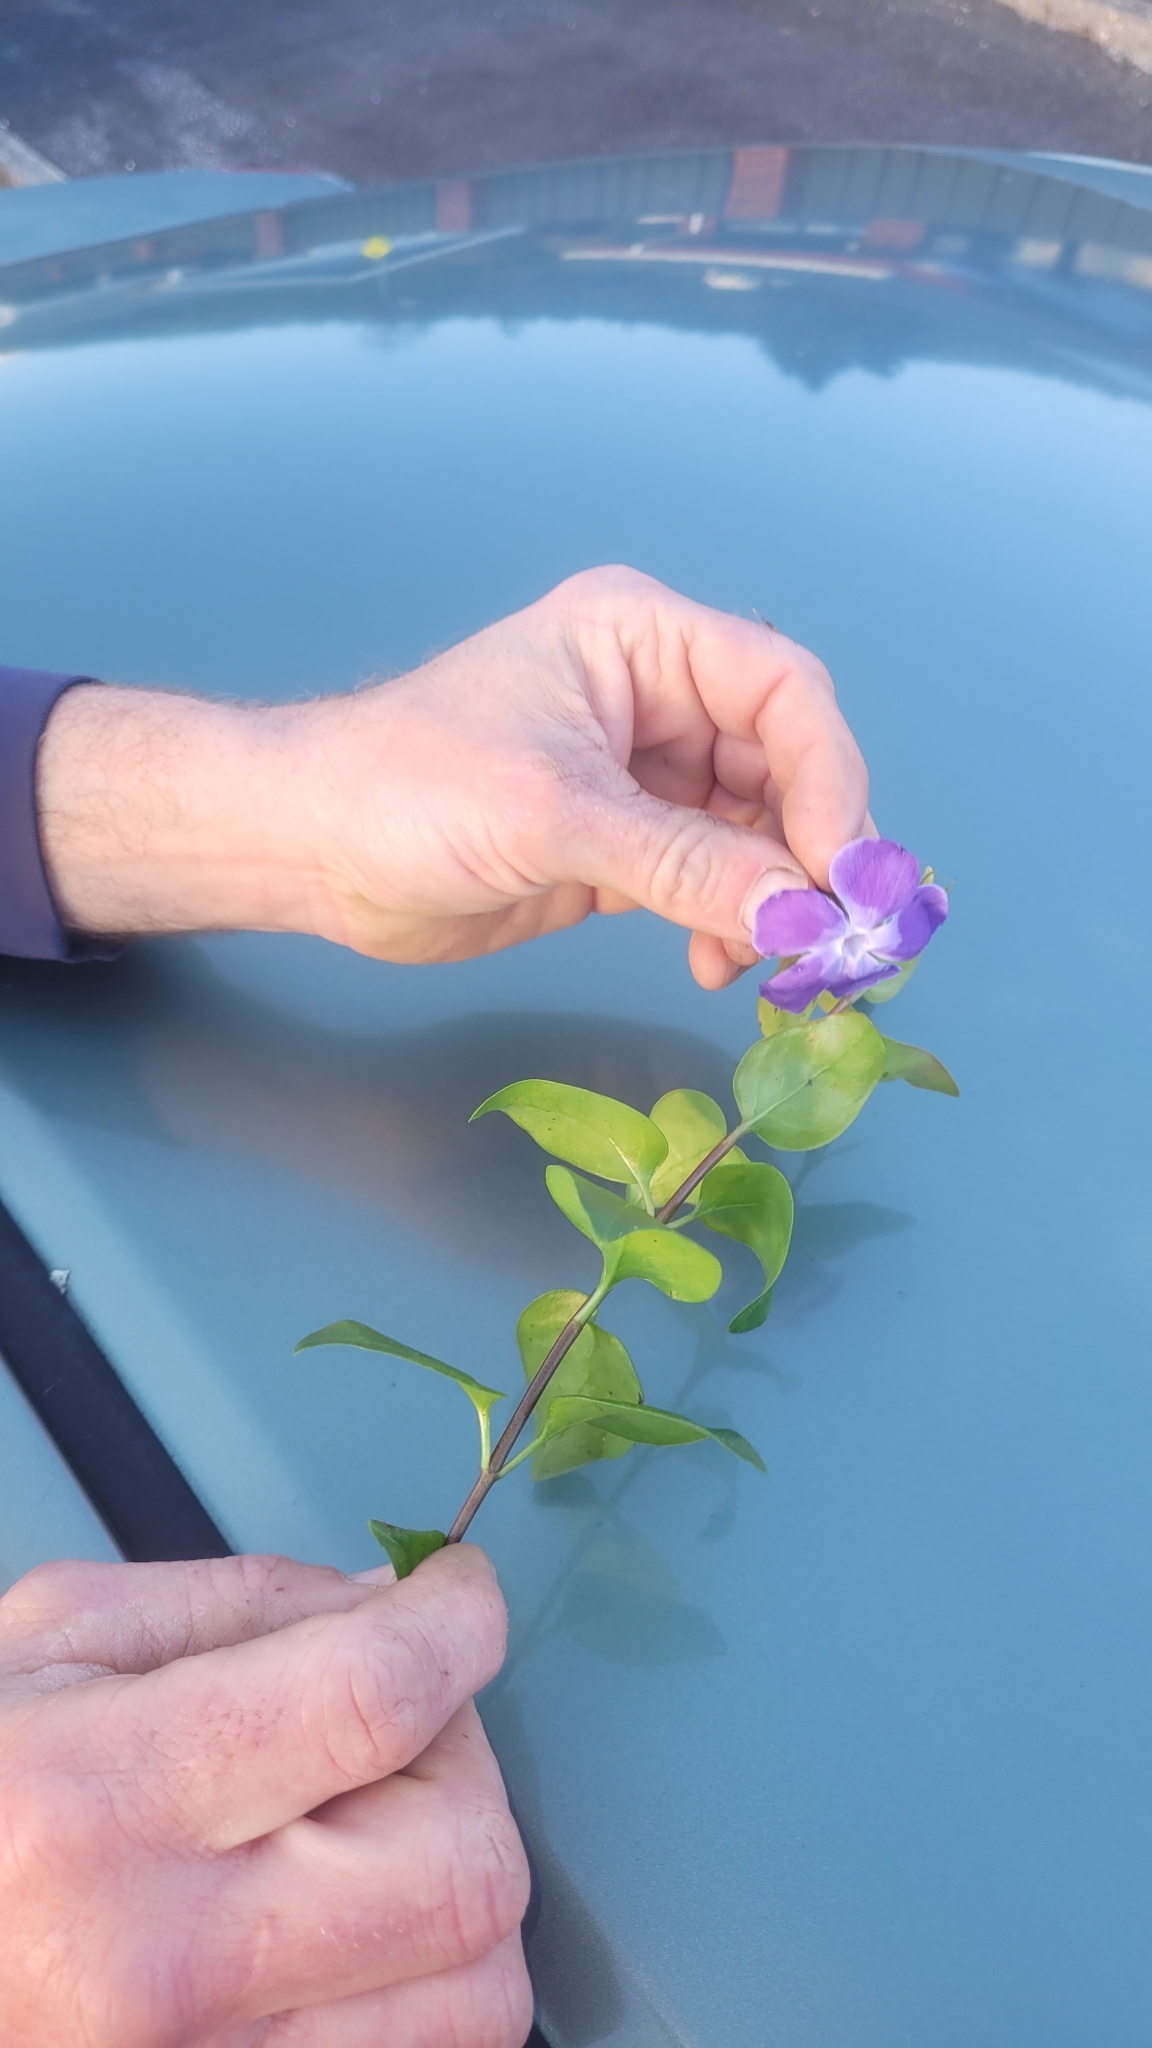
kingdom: Plantae
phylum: Tracheophyta
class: Magnoliopsida
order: Gentianales
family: Apocynaceae
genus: Vinca
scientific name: Vinca major
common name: Greater periwinkle
